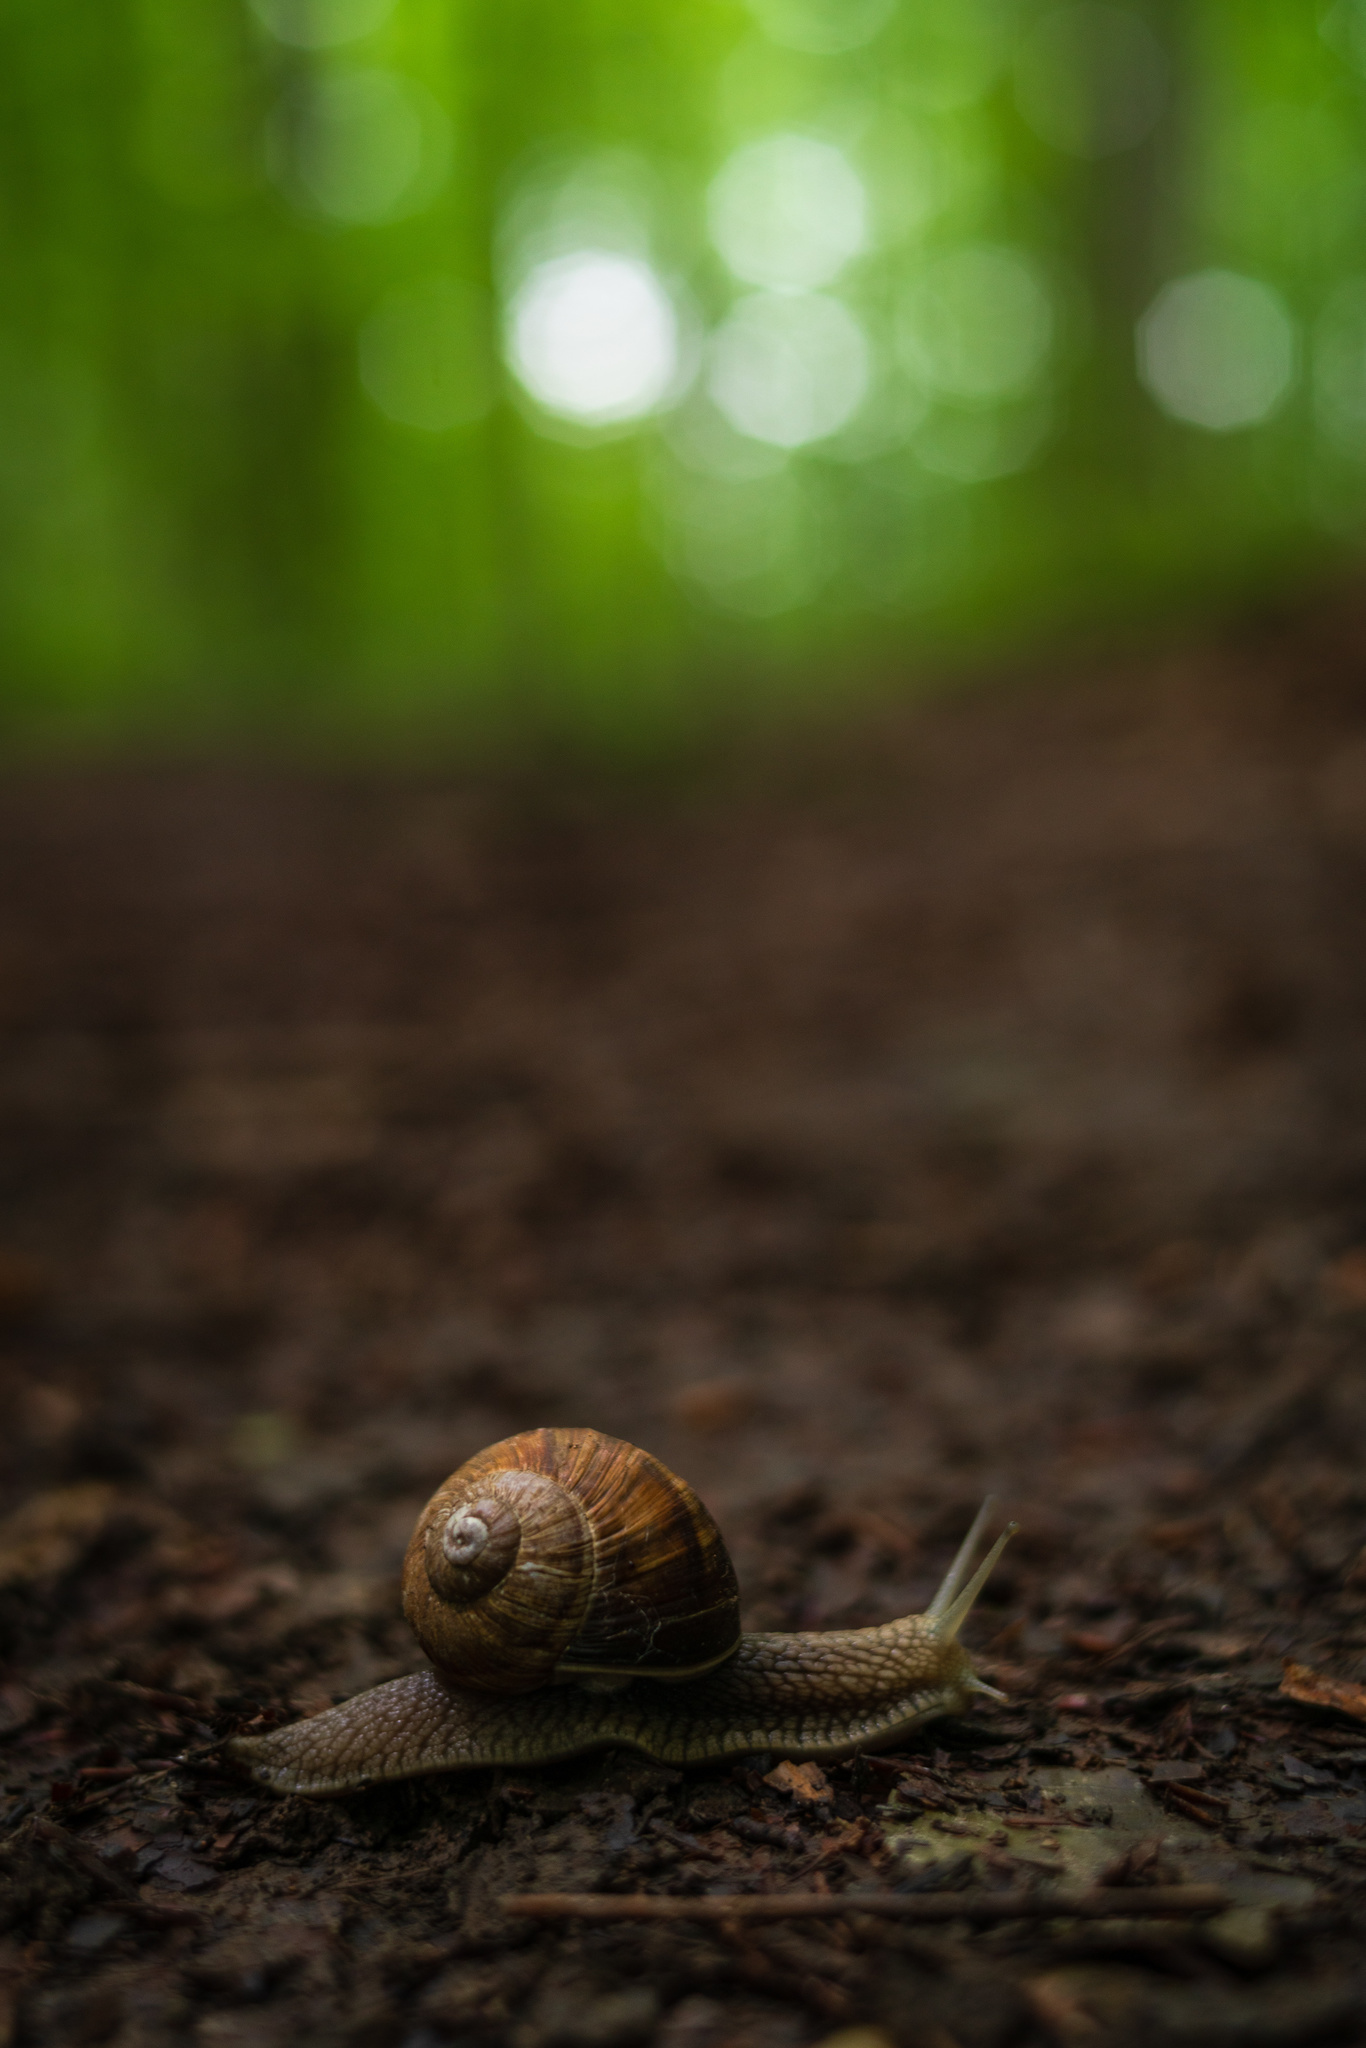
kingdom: Animalia
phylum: Mollusca
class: Gastropoda
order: Stylommatophora
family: Helicidae
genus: Helix
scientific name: Helix pomatia
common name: Roman snail
